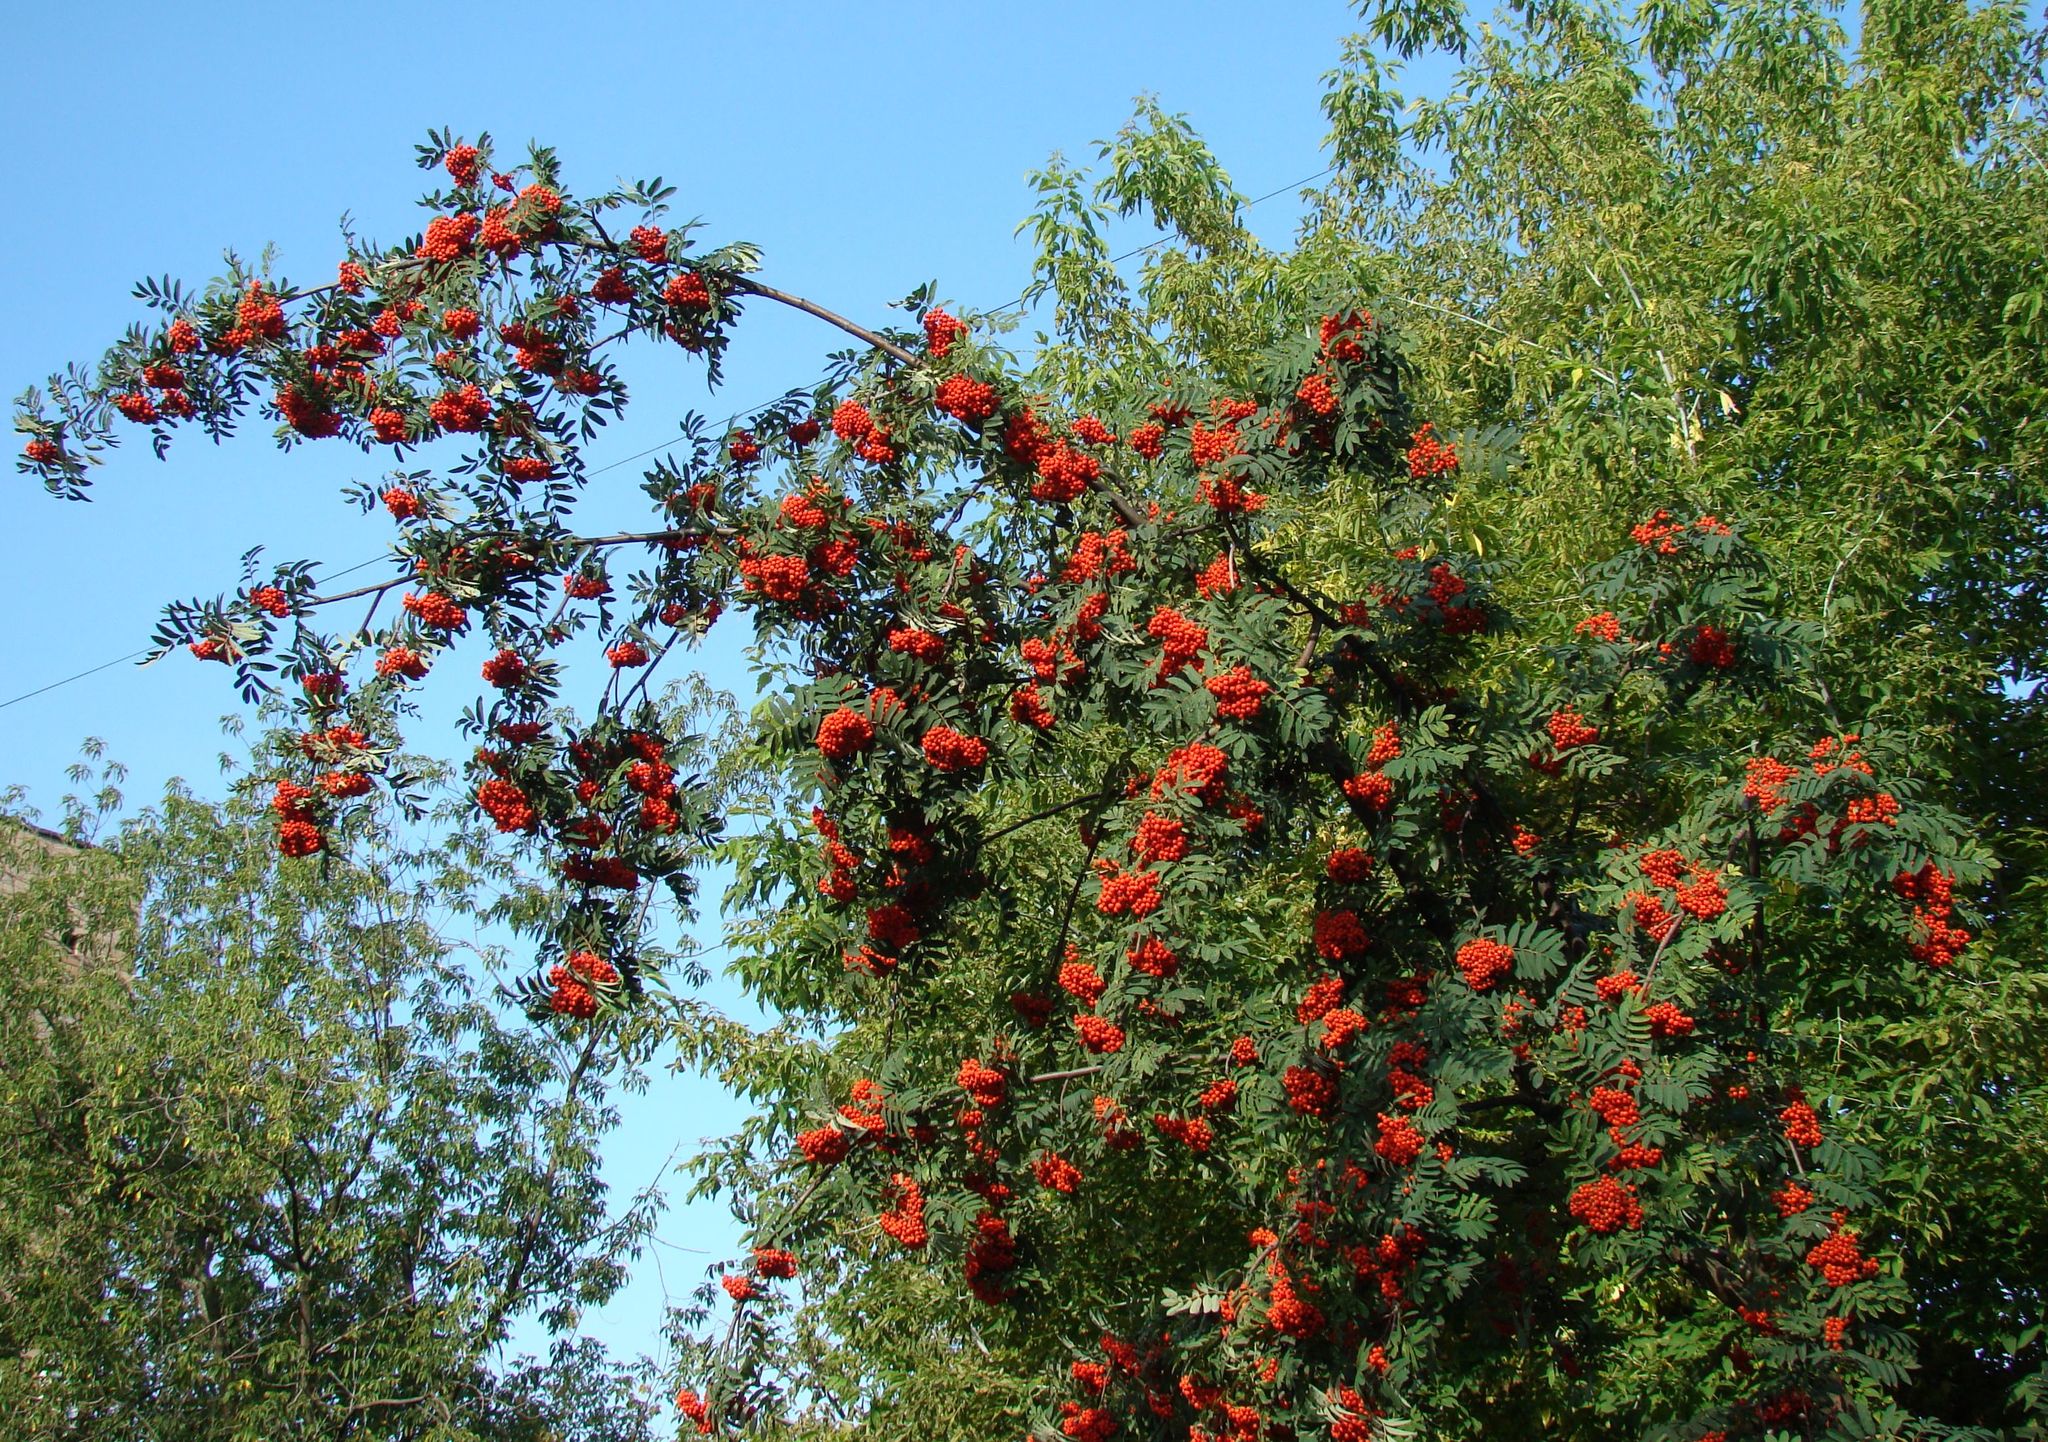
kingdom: Plantae
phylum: Tracheophyta
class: Magnoliopsida
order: Rosales
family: Rosaceae
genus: Sorbus
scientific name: Sorbus aucuparia
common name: Rowan
